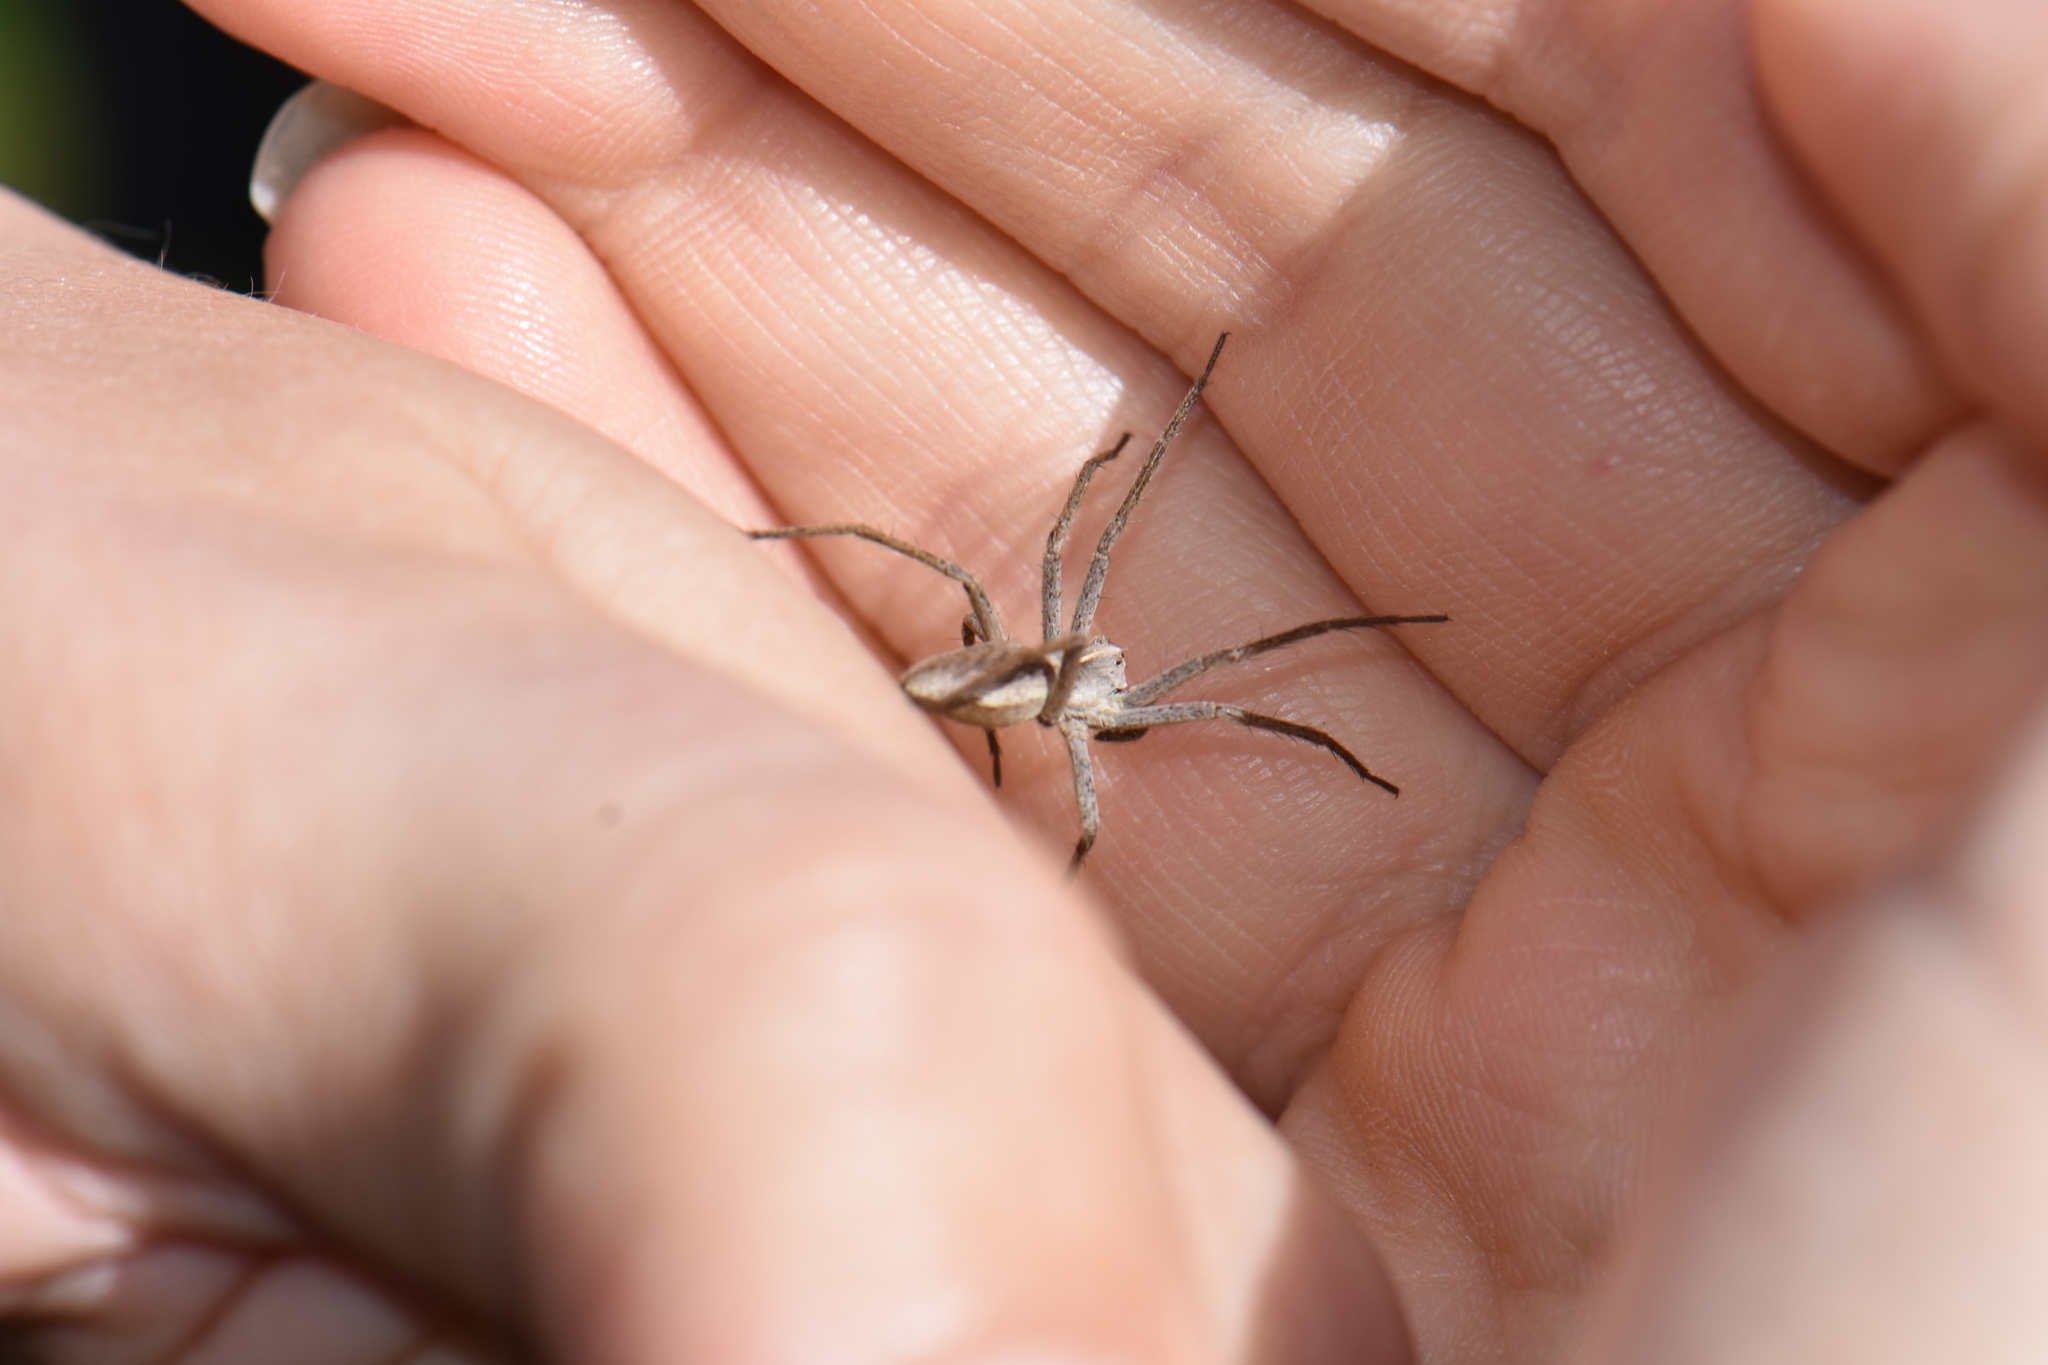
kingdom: Animalia
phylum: Arthropoda
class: Arachnida
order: Araneae
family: Pisauridae
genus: Pisaura
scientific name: Pisaura
